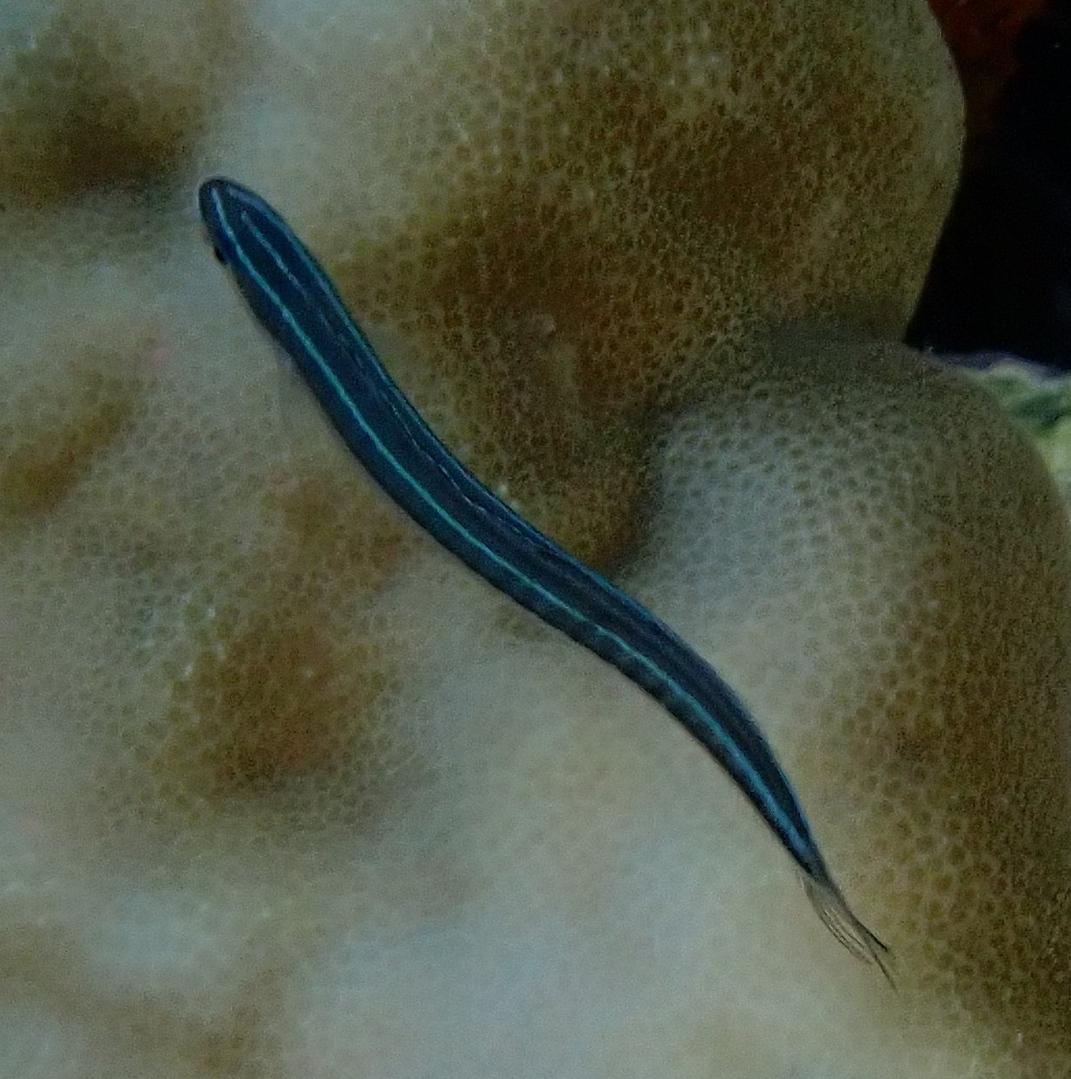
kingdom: Animalia
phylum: Chordata
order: Perciformes
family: Blenniidae
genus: Plagiotremus
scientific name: Plagiotremus tapeinosoma
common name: Hit and run blenny
